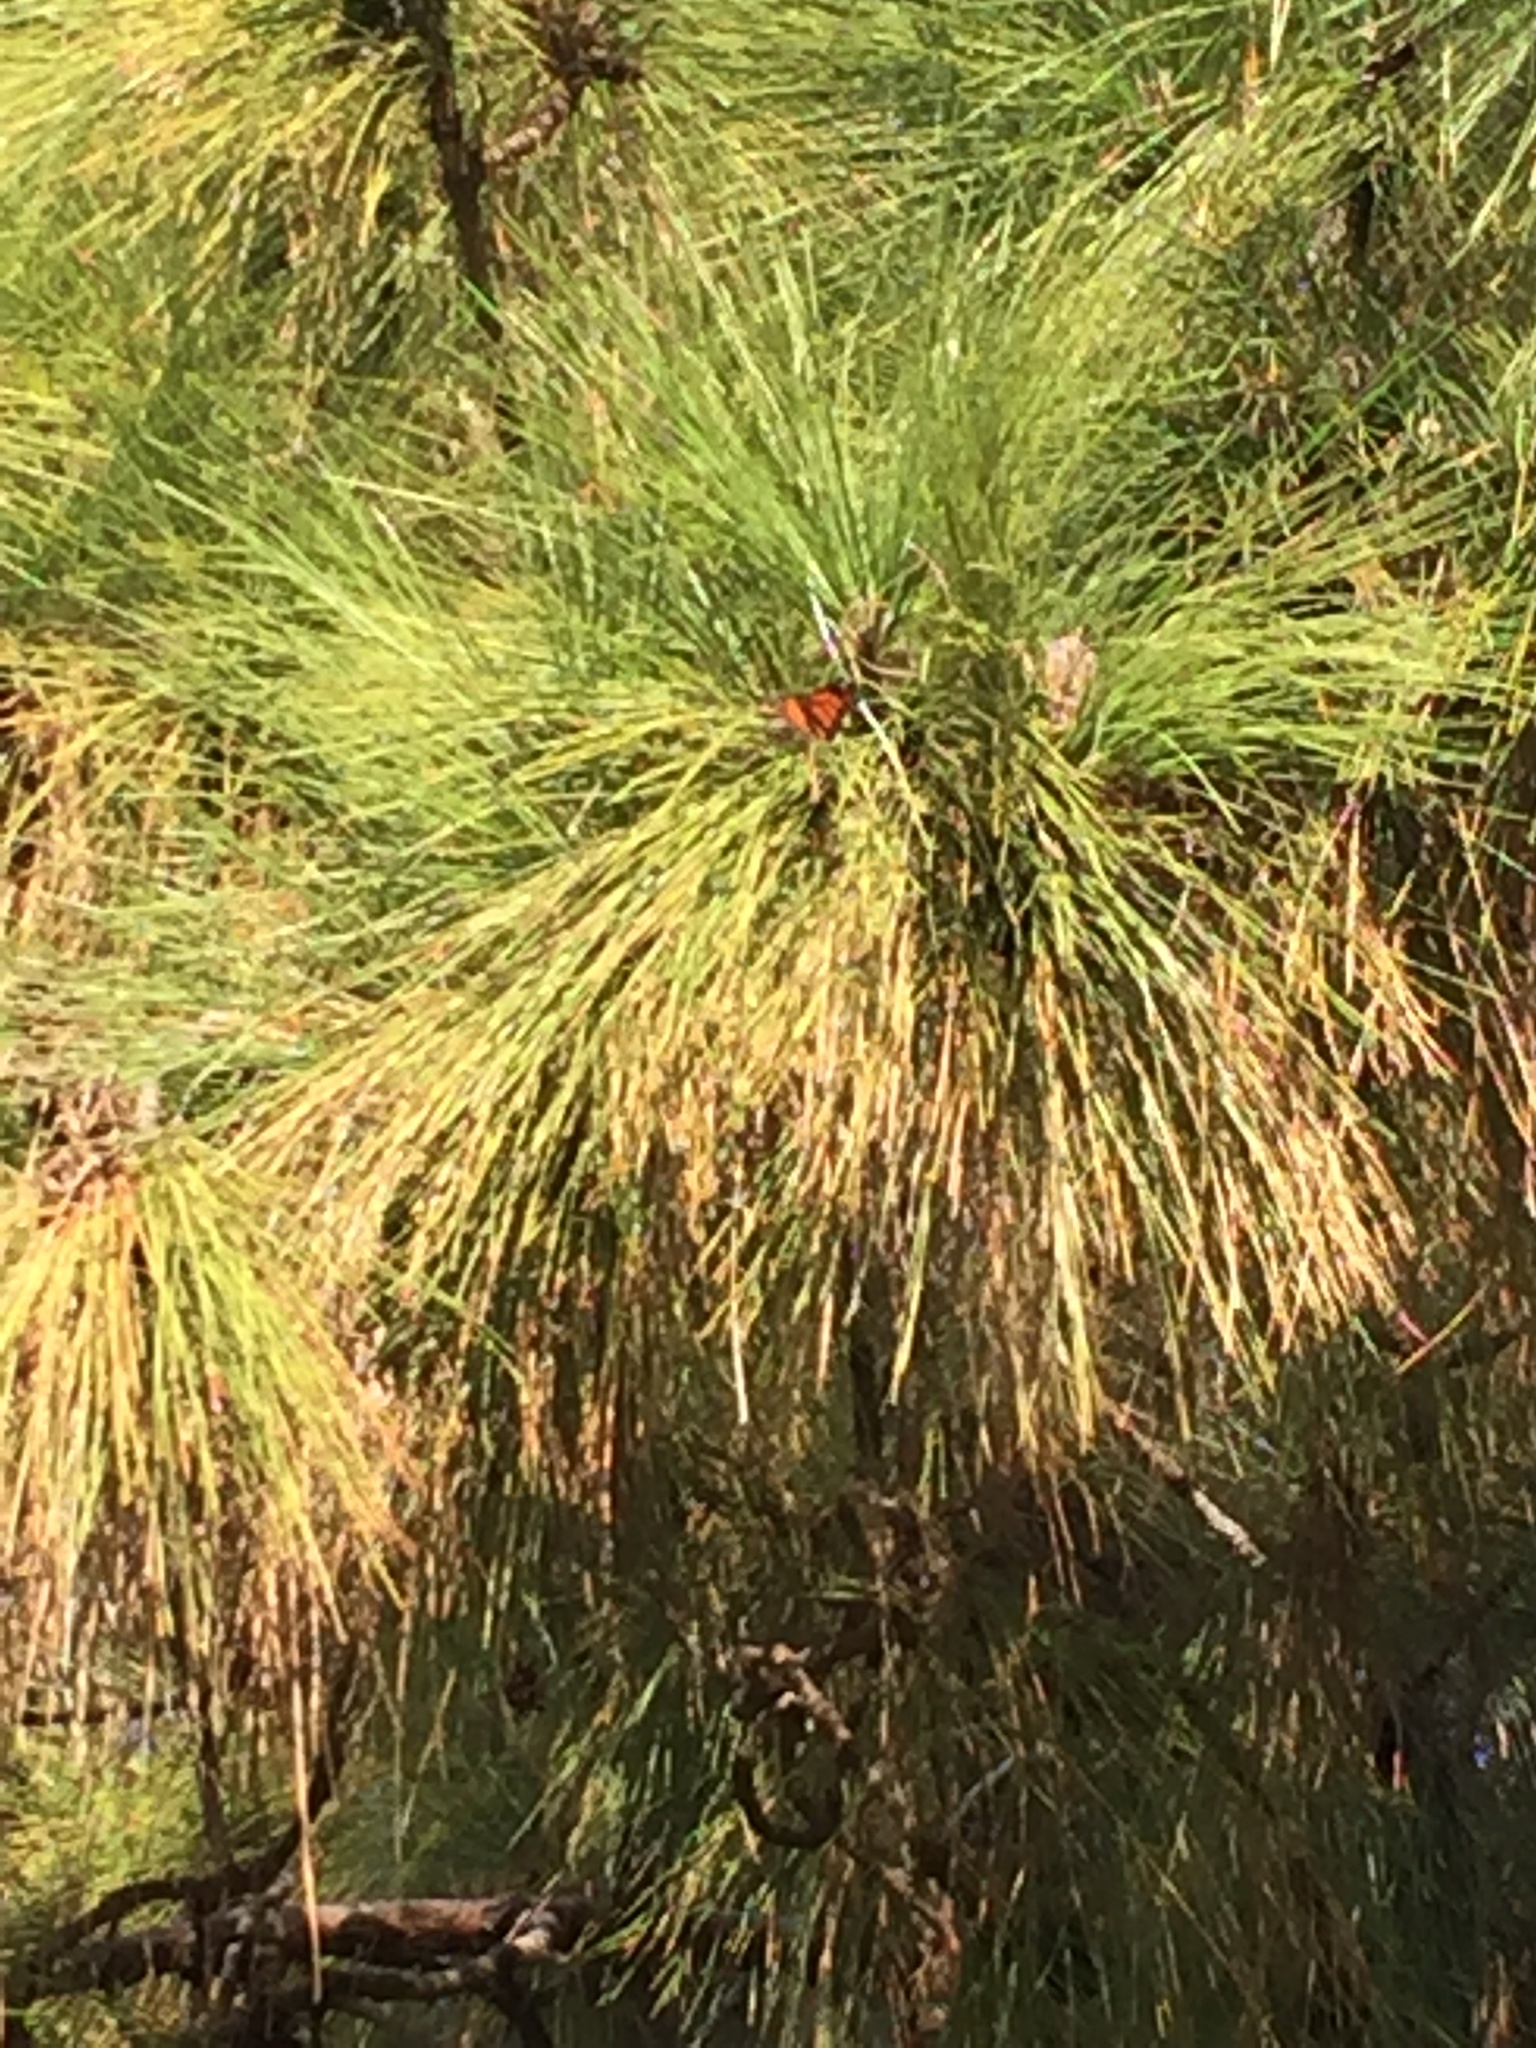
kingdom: Animalia
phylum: Arthropoda
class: Insecta
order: Lepidoptera
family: Nymphalidae
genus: Danaus
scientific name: Danaus plexippus
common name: Monarch
